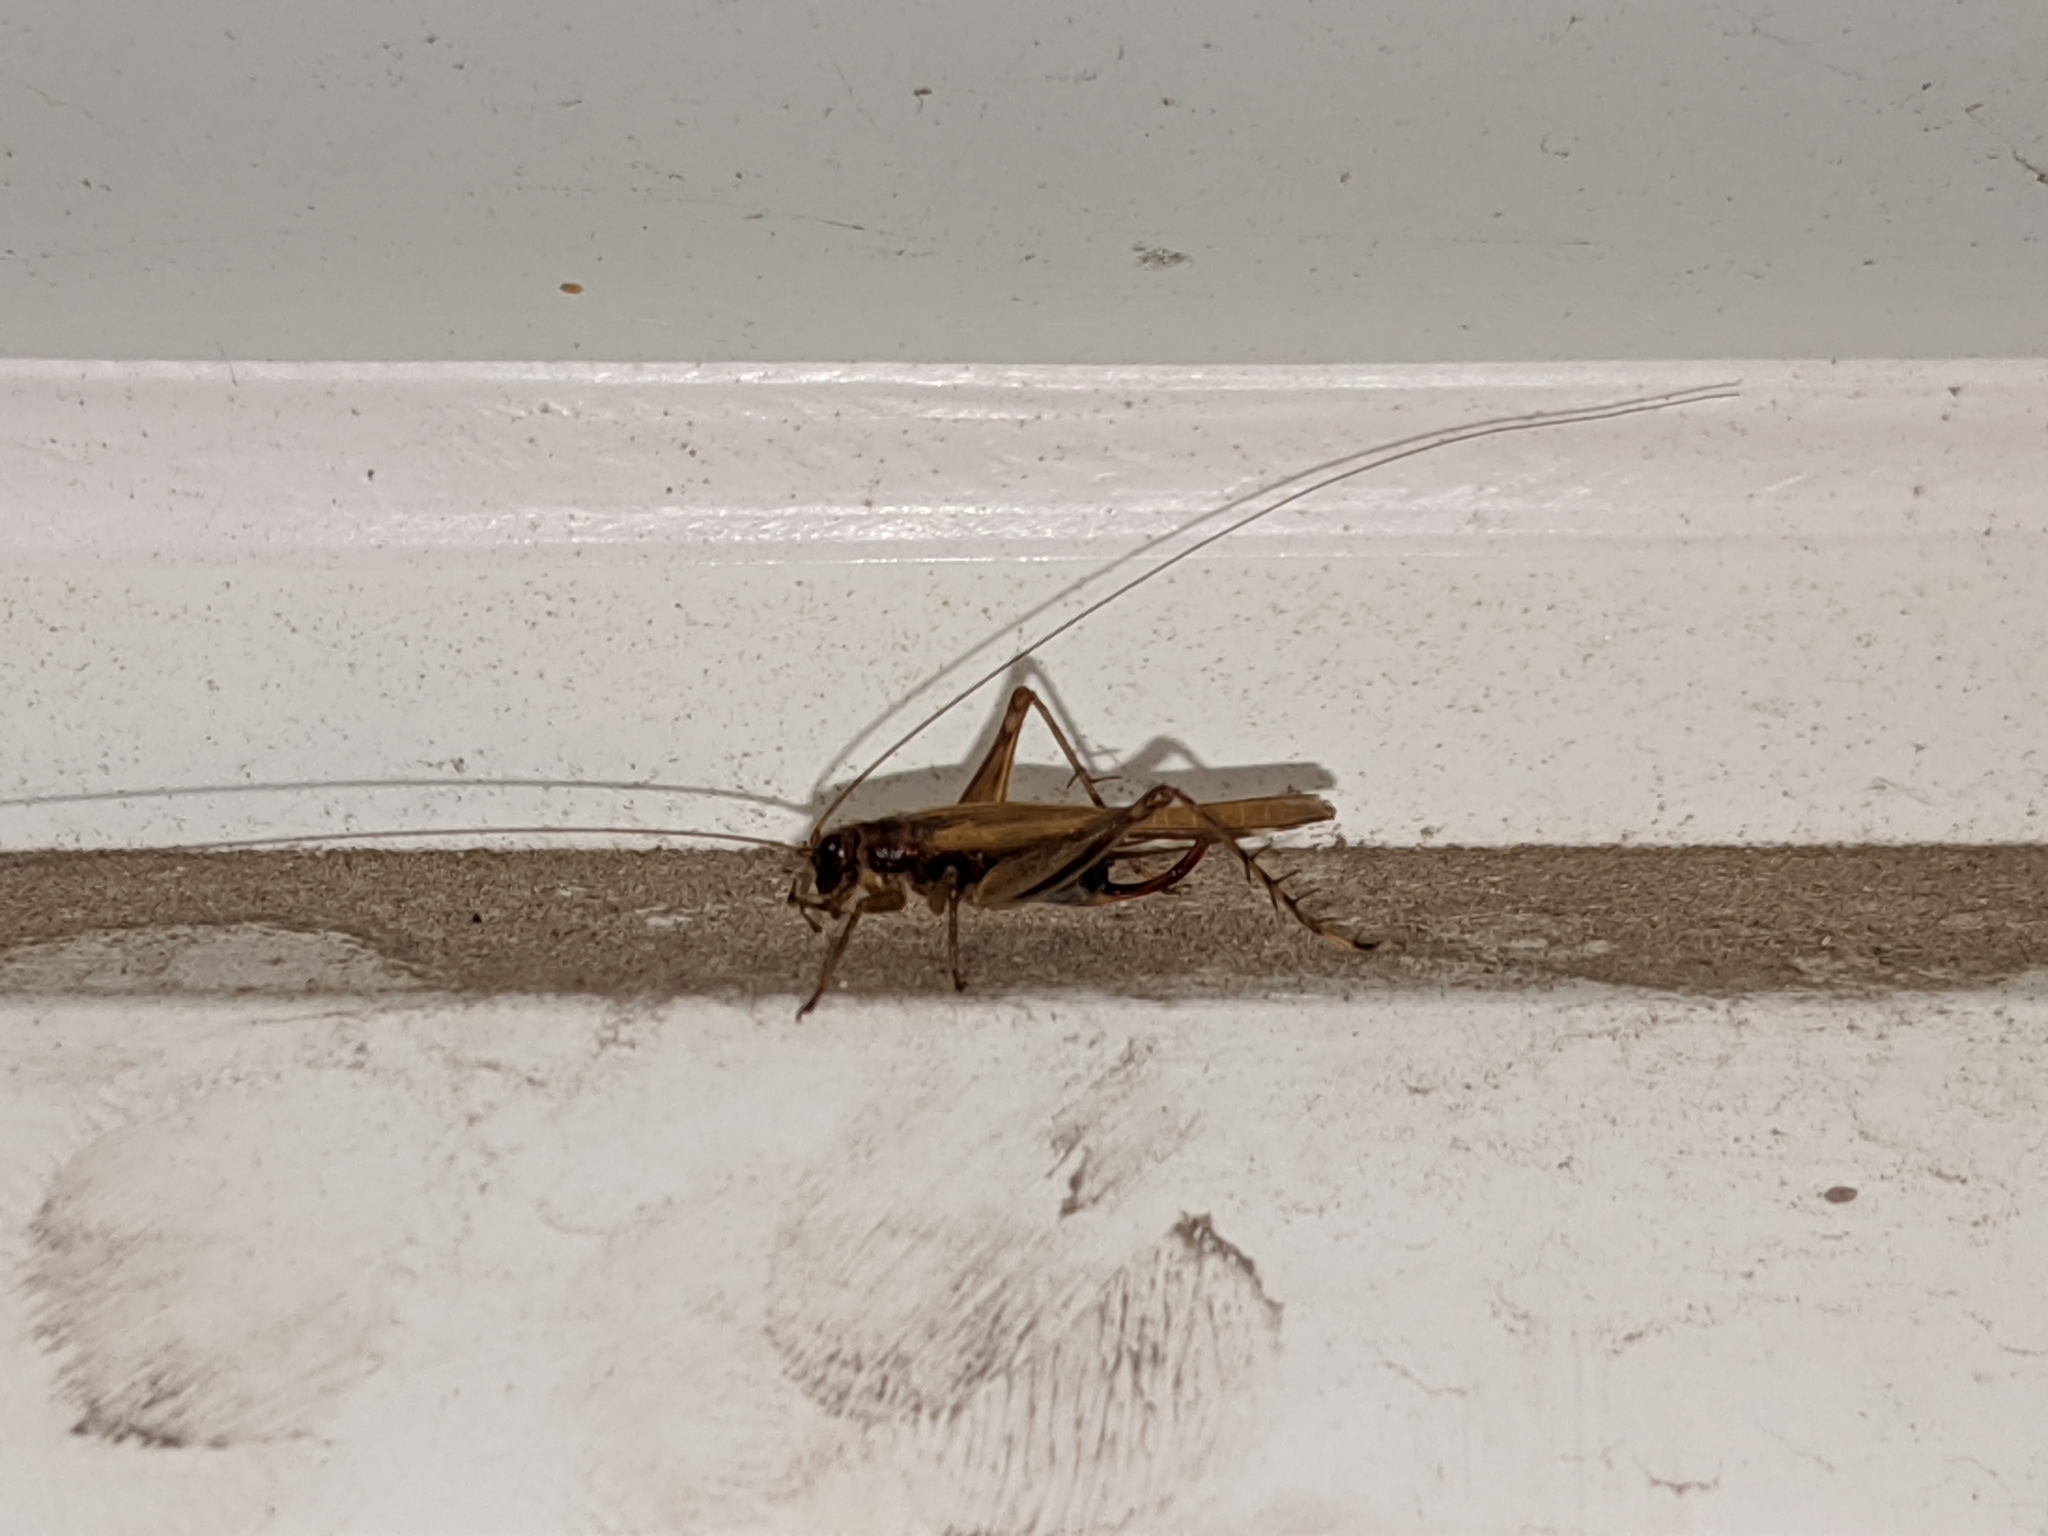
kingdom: Animalia
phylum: Arthropoda
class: Insecta
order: Orthoptera
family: Trigonidiidae
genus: Anaxipha
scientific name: Anaxipha exigua
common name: Say's bush cricket
